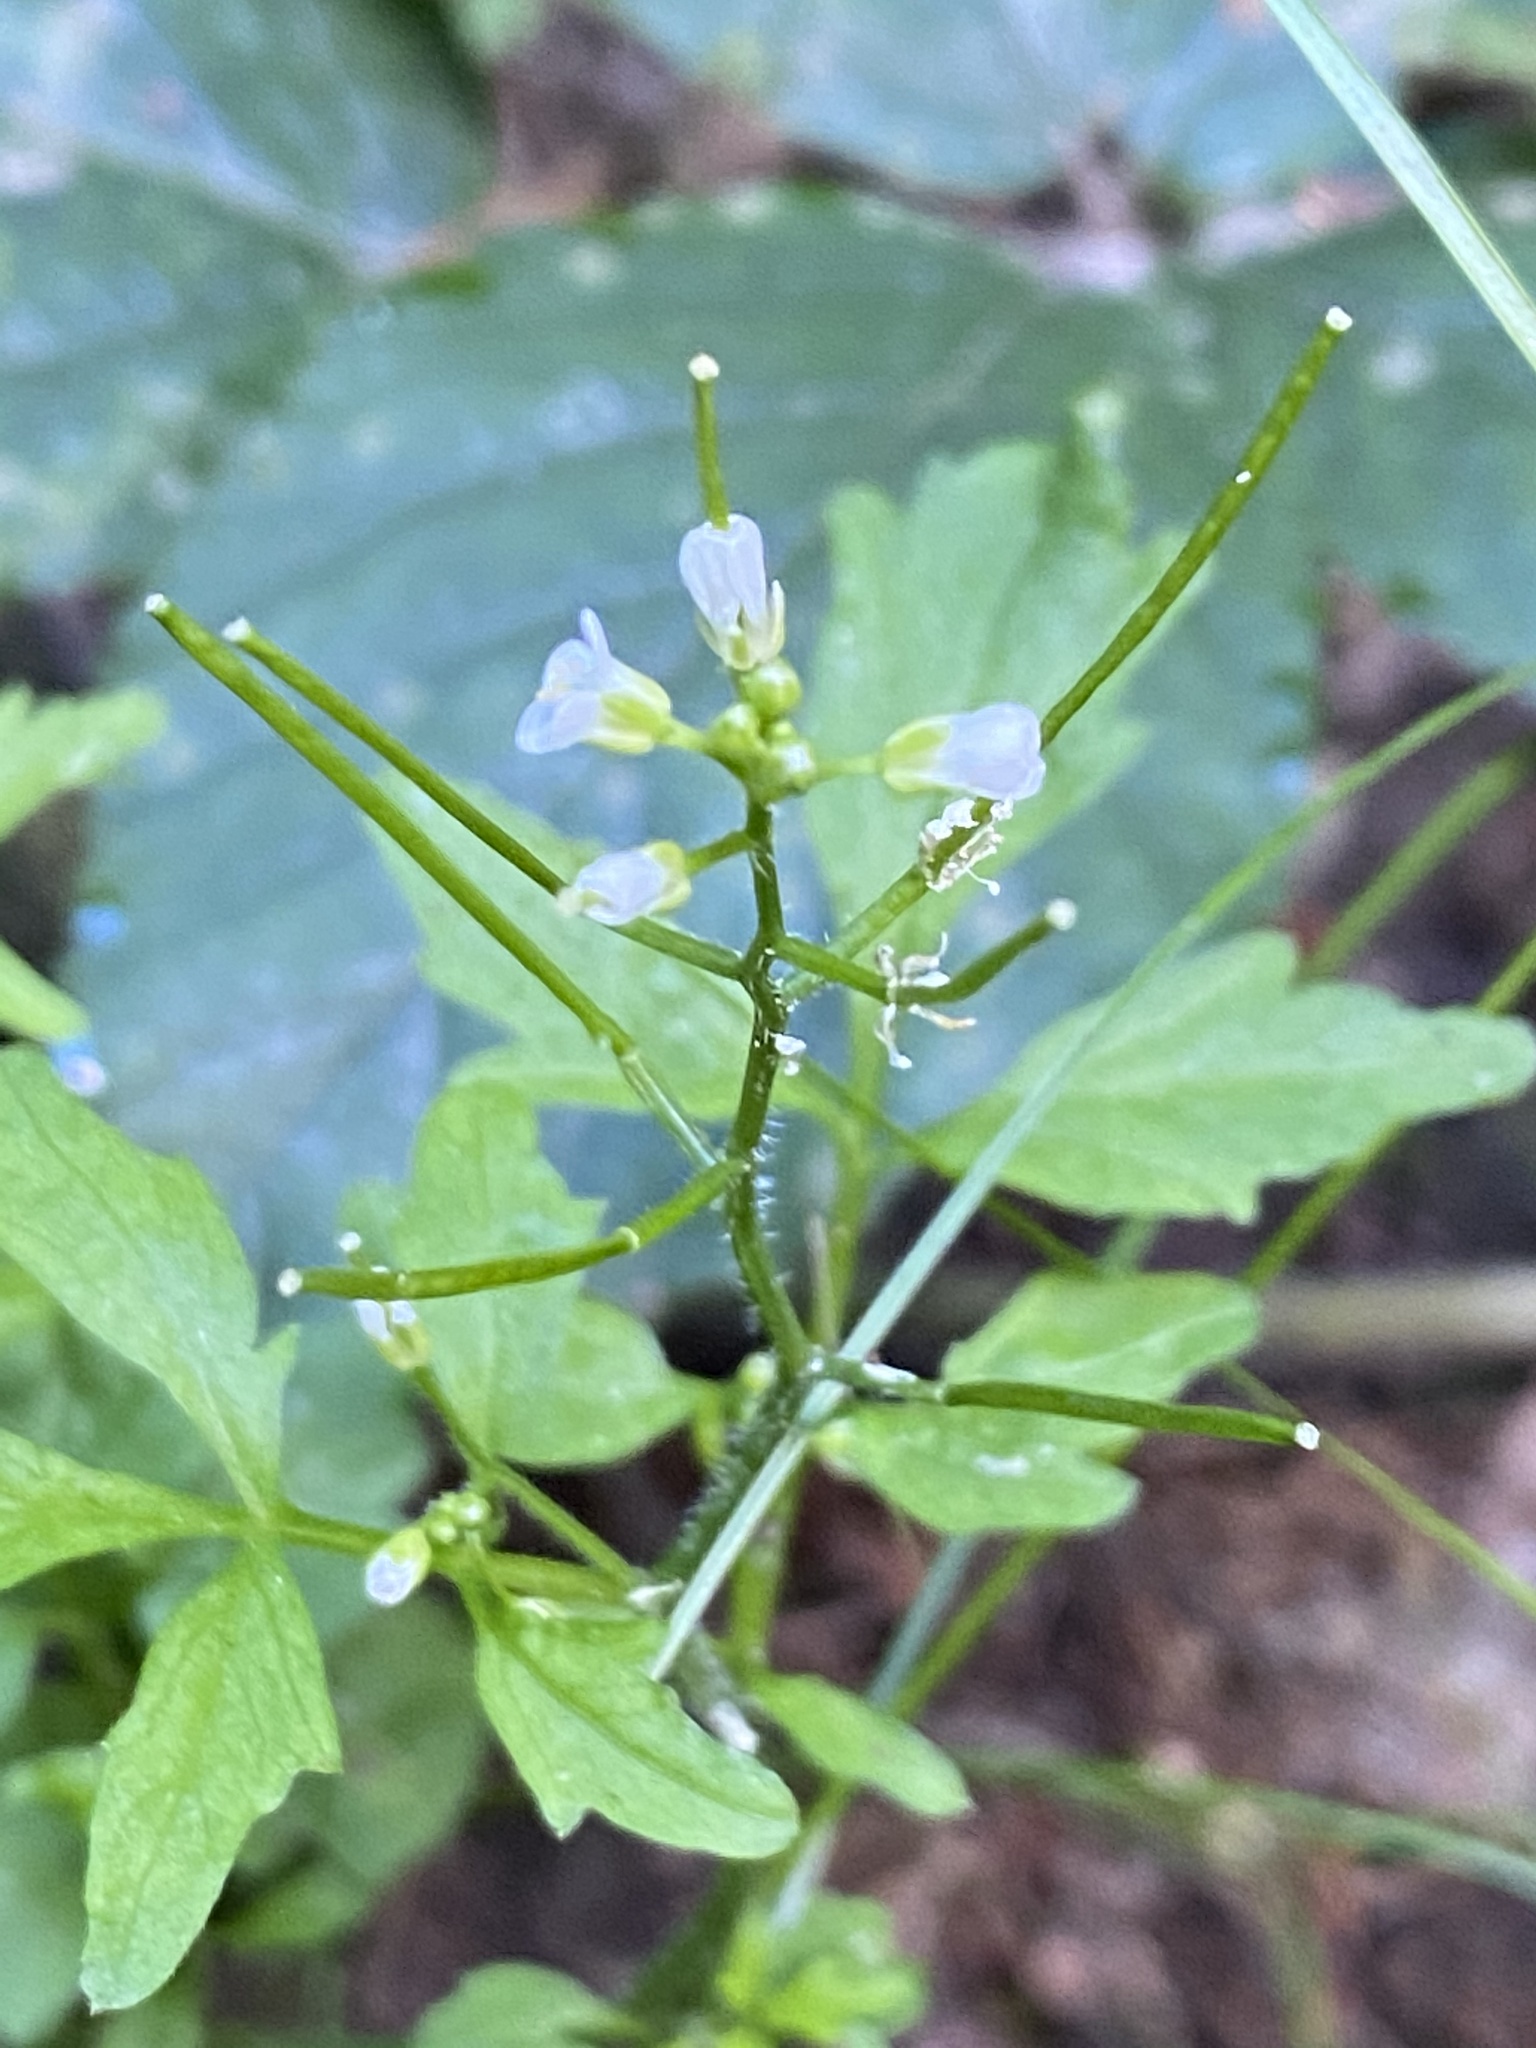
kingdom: Plantae
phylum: Tracheophyta
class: Magnoliopsida
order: Brassicales
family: Brassicaceae
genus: Cardamine
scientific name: Cardamine flexuosa
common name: Woodland bittercress
